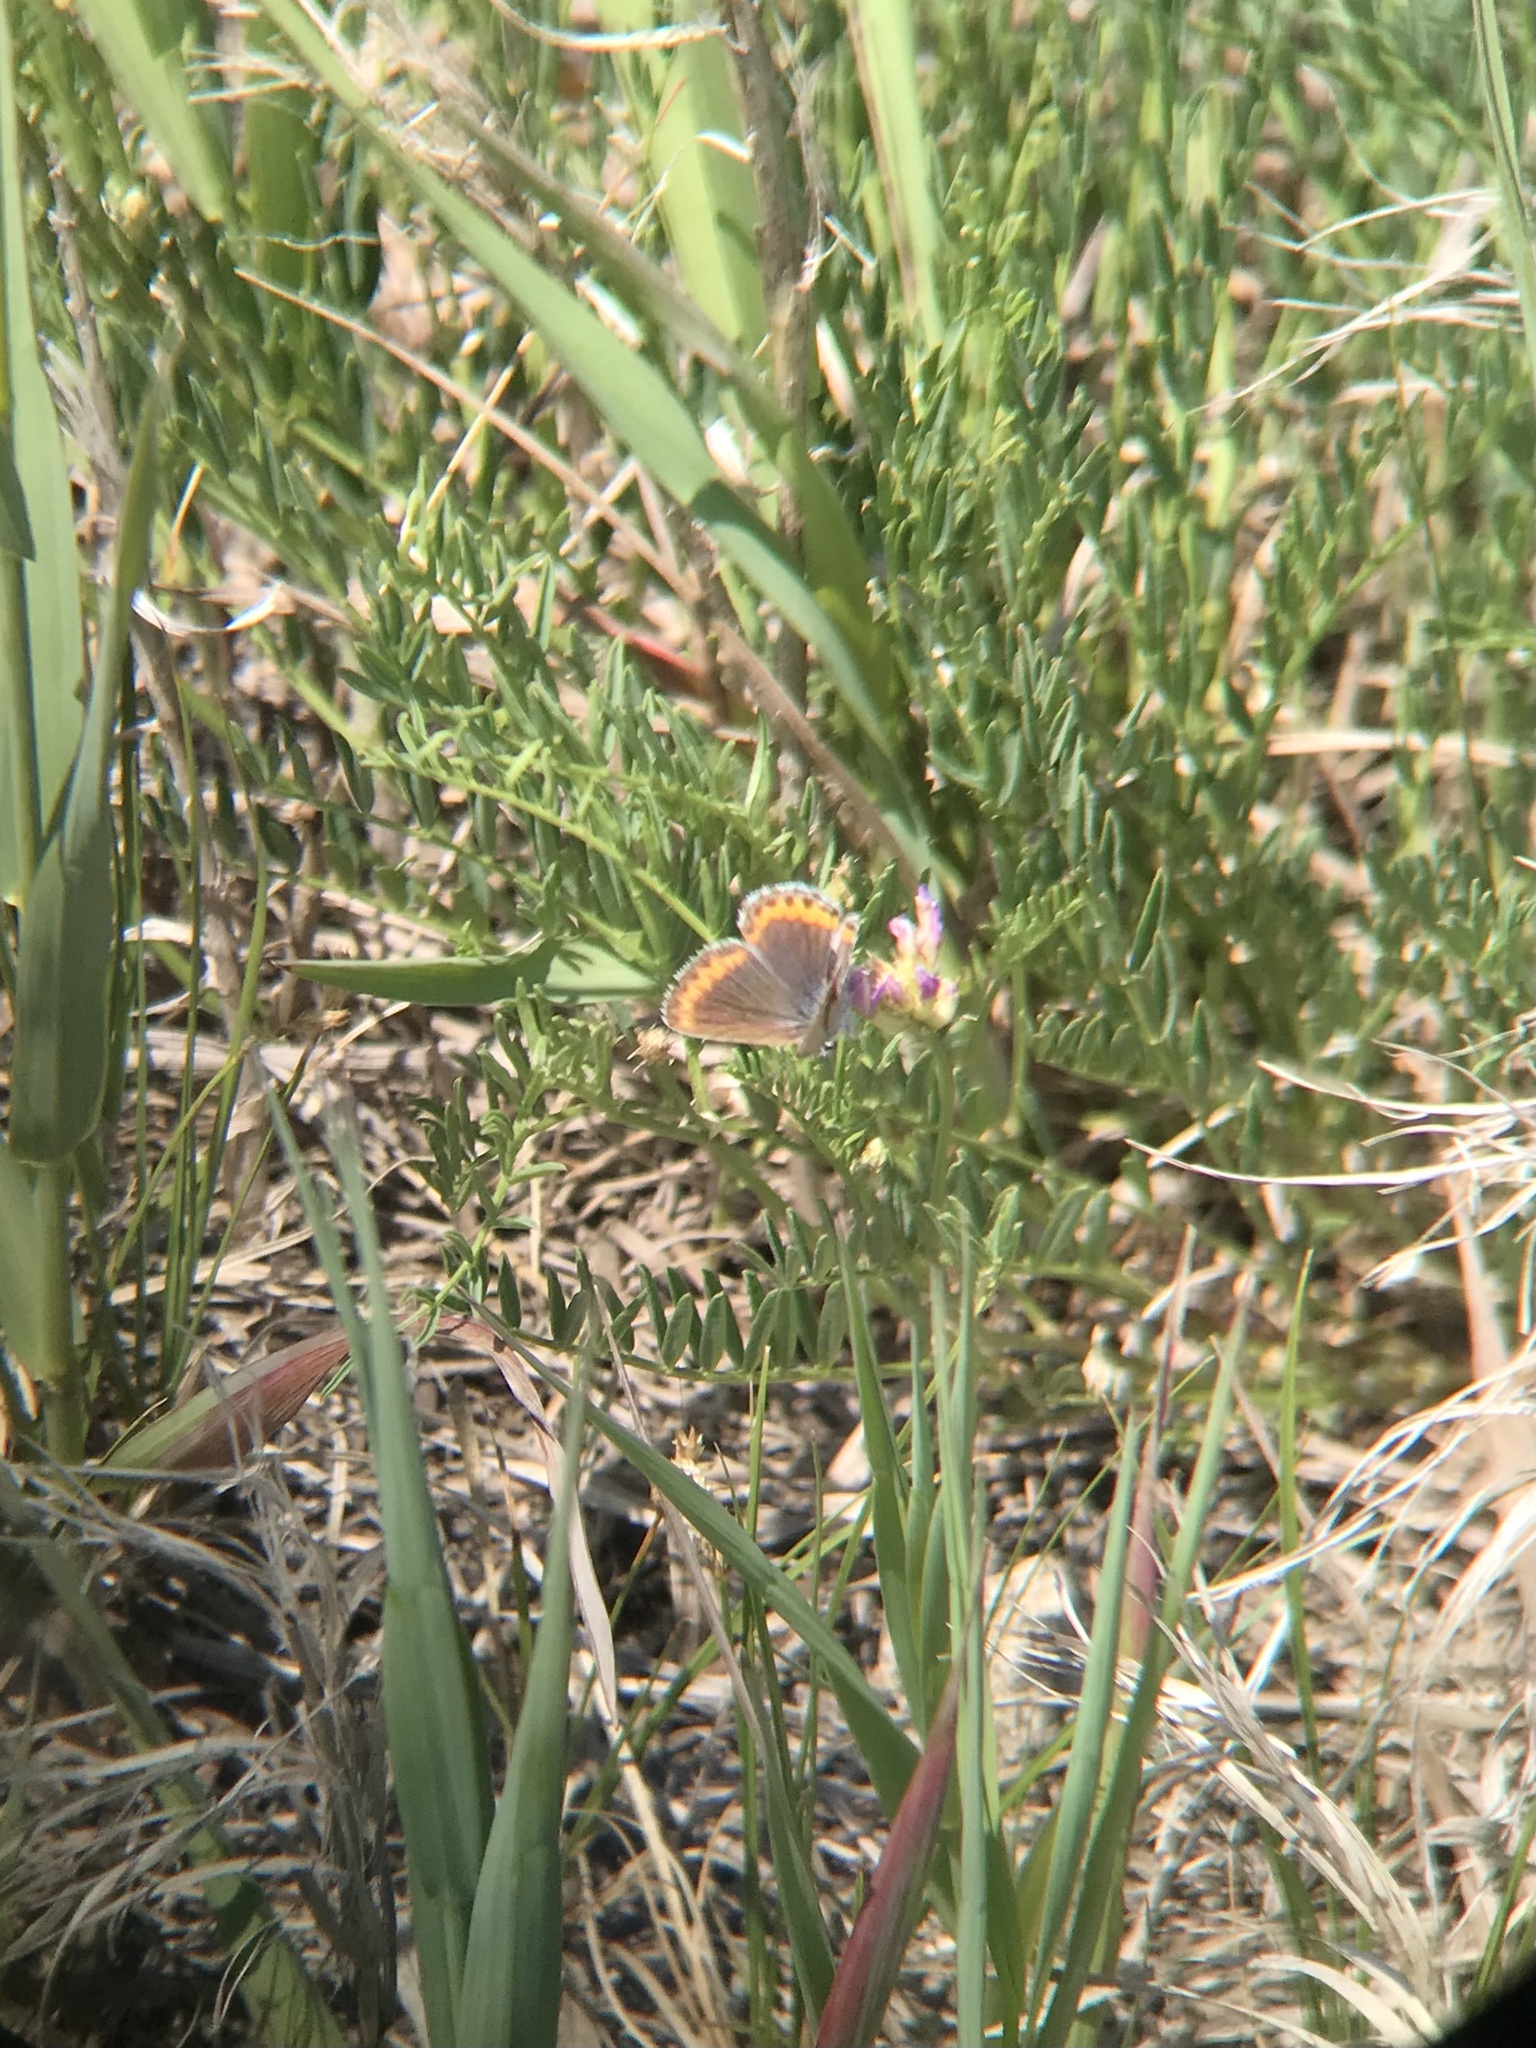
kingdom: Animalia
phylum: Arthropoda
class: Insecta
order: Lepidoptera
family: Lycaenidae
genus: Lycaeides
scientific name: Lycaeides melissa
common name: Melissa blue
